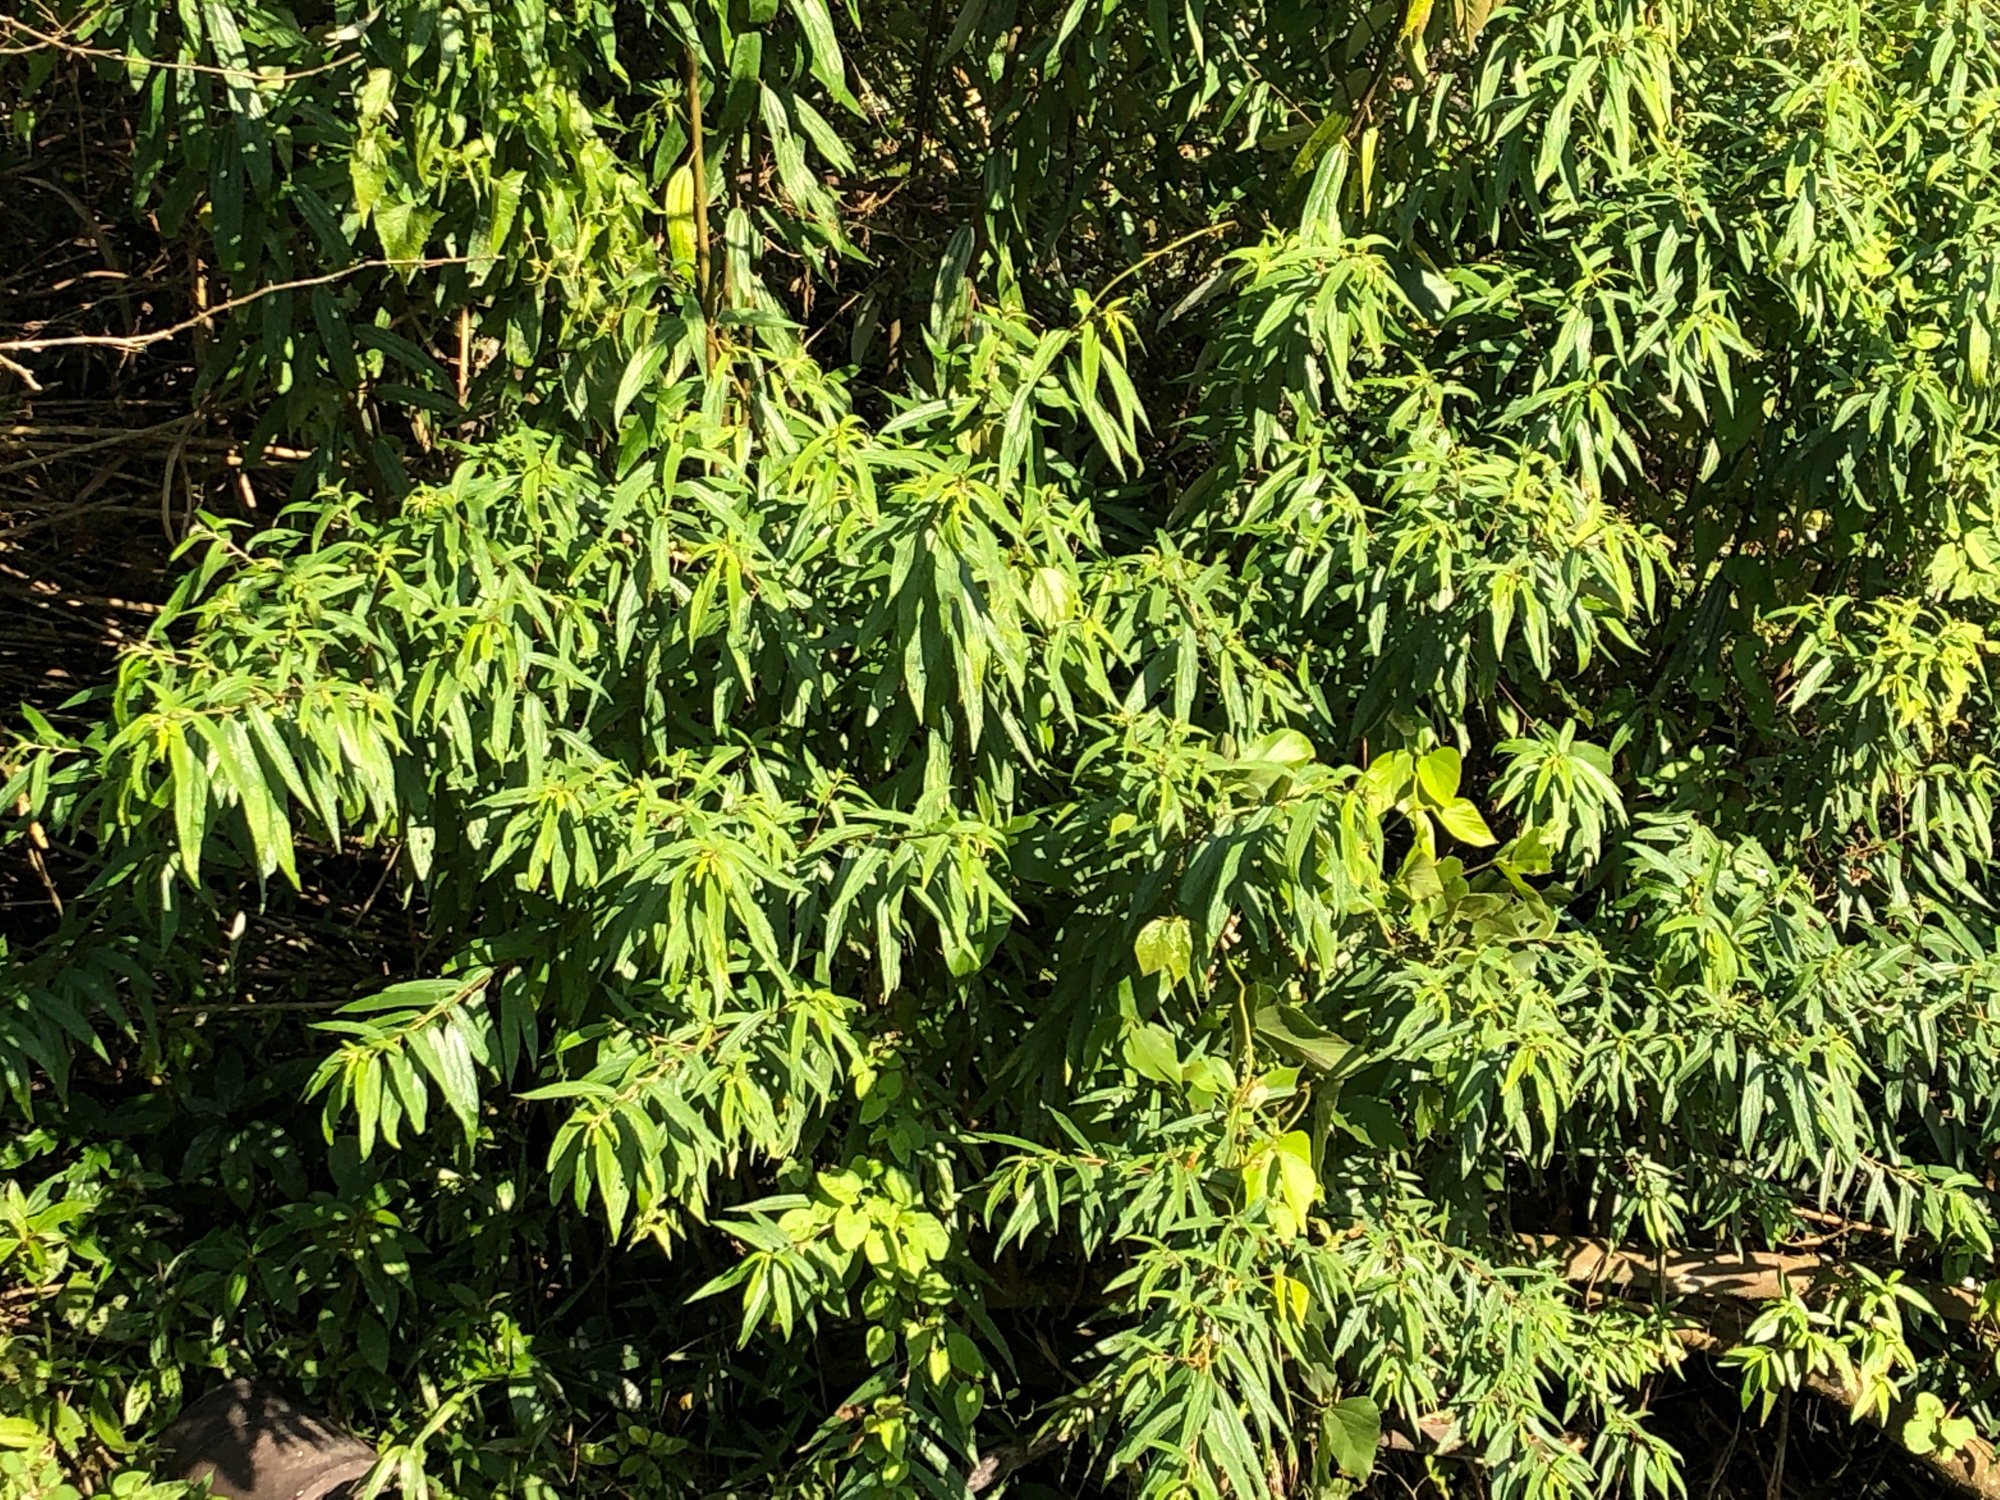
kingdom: Plantae
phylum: Tracheophyta
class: Magnoliopsida
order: Rosales
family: Urticaceae
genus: Debregeasia
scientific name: Debregeasia orientalis
